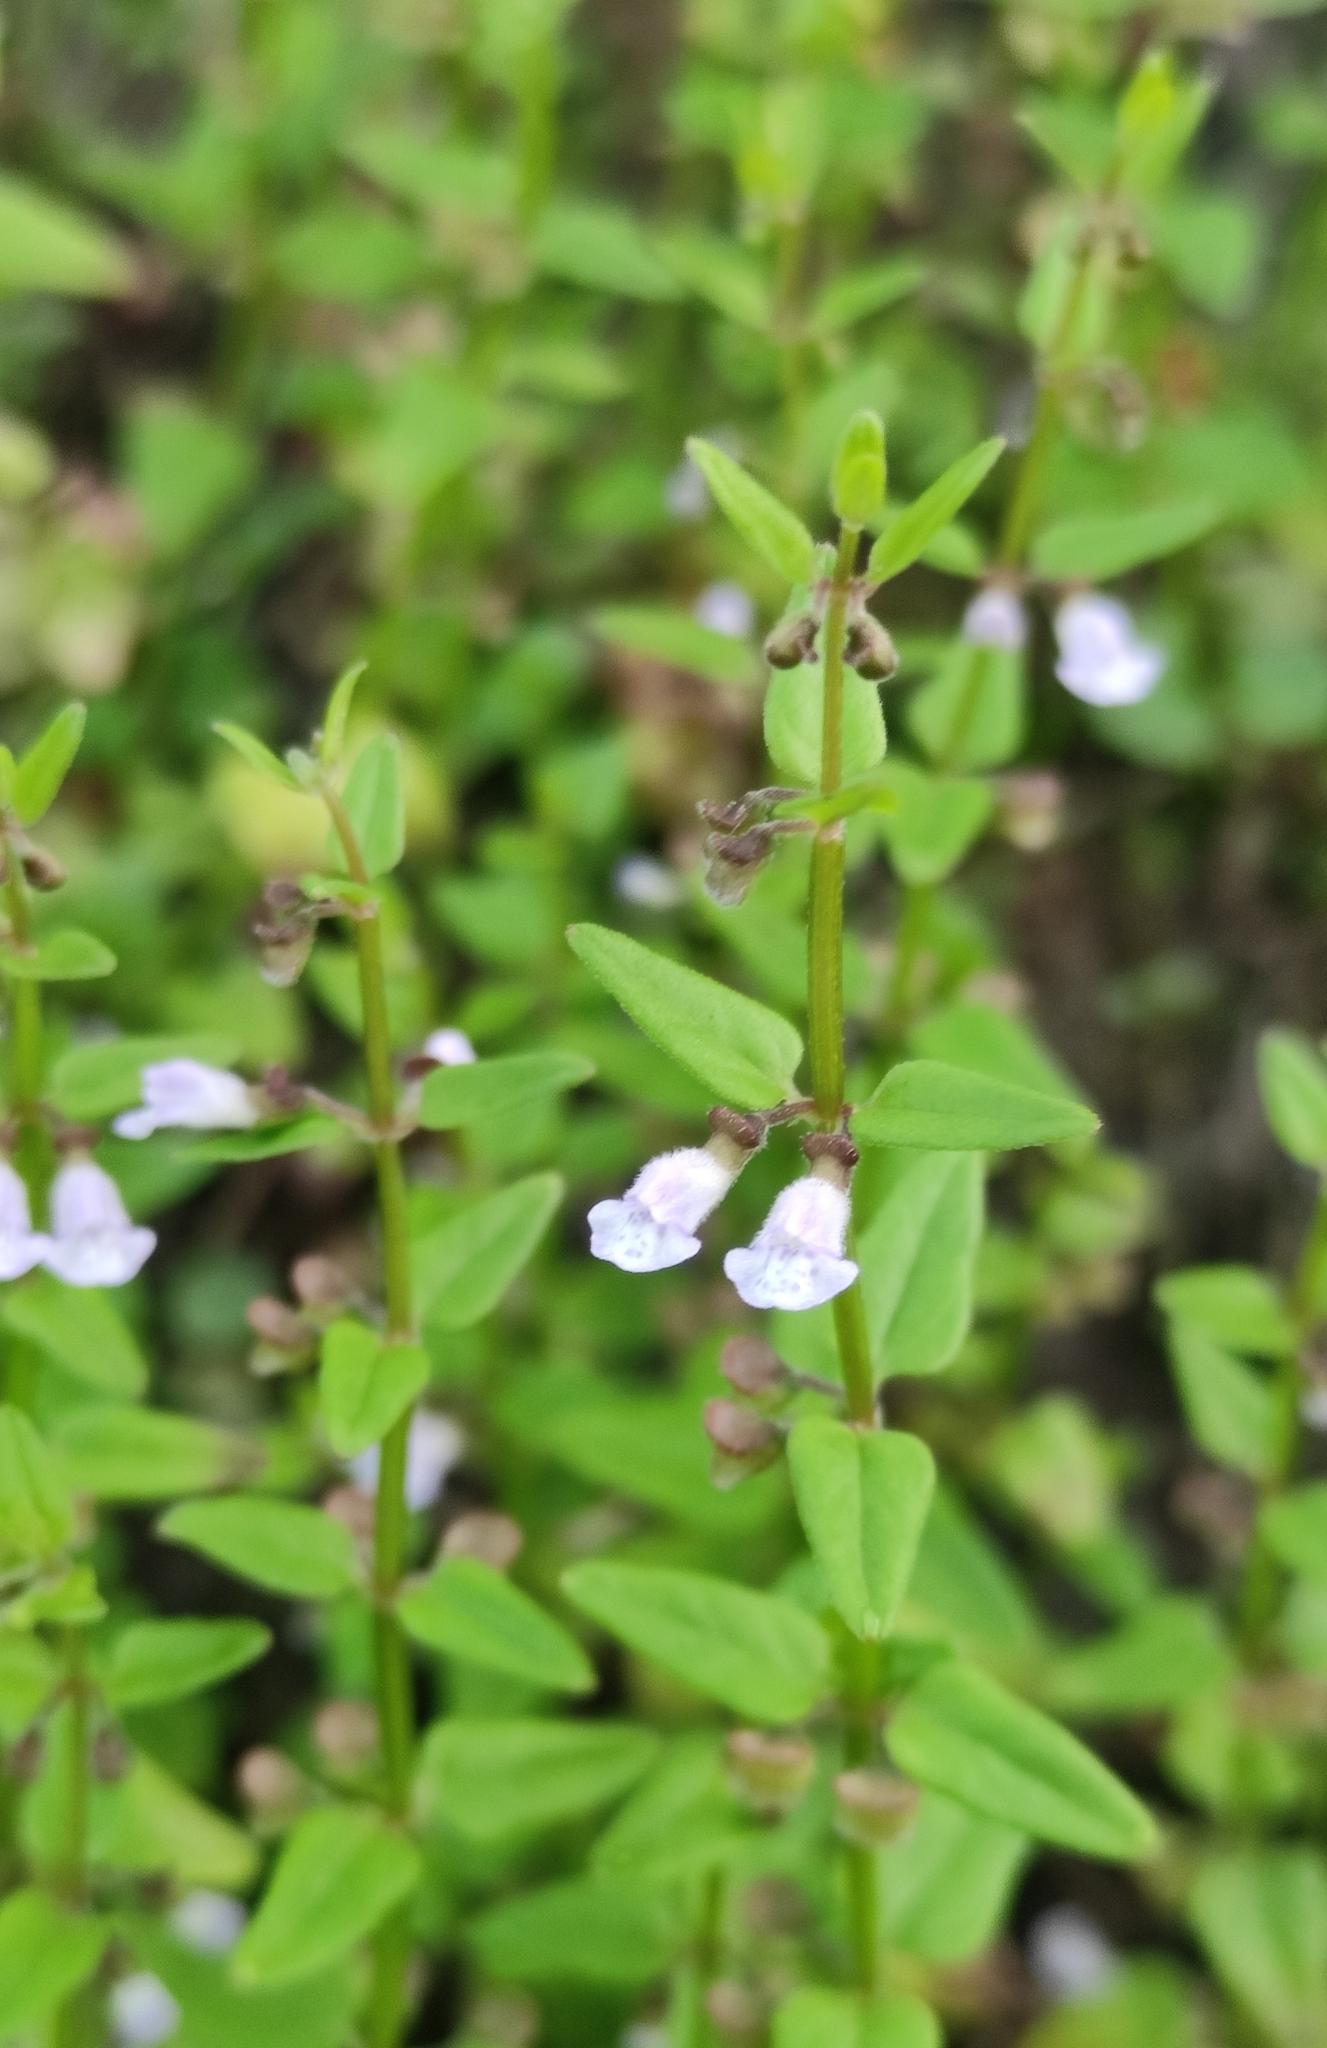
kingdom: Plantae
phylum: Tracheophyta
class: Magnoliopsida
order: Lamiales
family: Lamiaceae
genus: Scutellaria
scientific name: Scutellaria dependens
